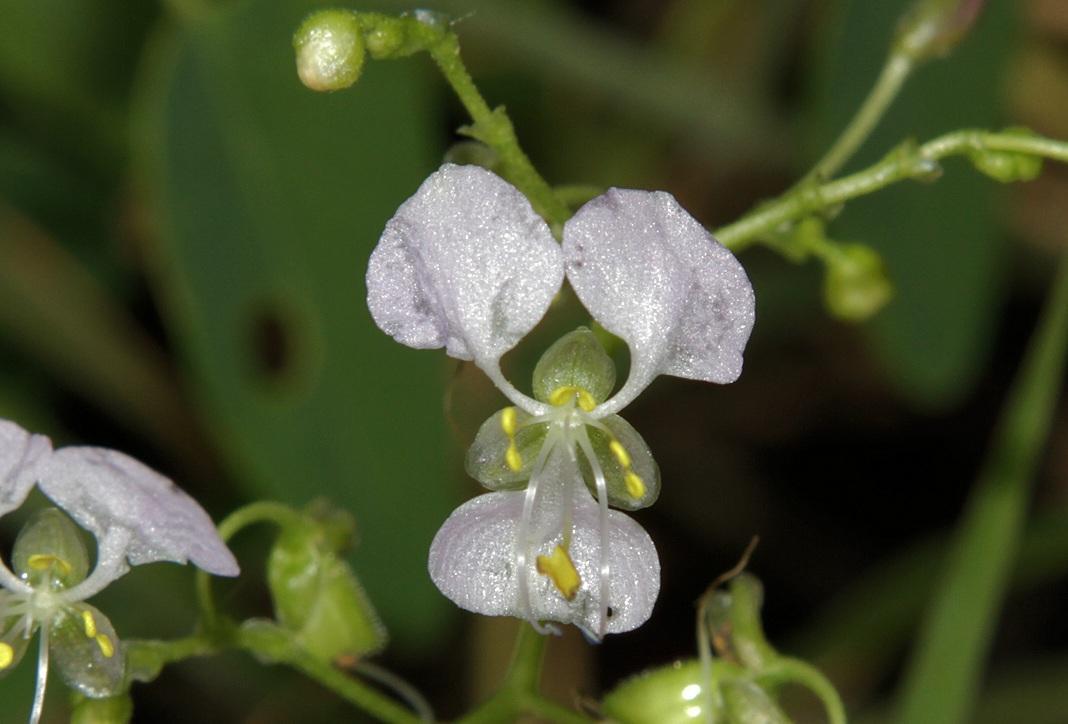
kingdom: Plantae
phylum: Tracheophyta
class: Liliopsida
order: Commelinales
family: Commelinaceae
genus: Aneilema
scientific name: Aneilema indehiscens
